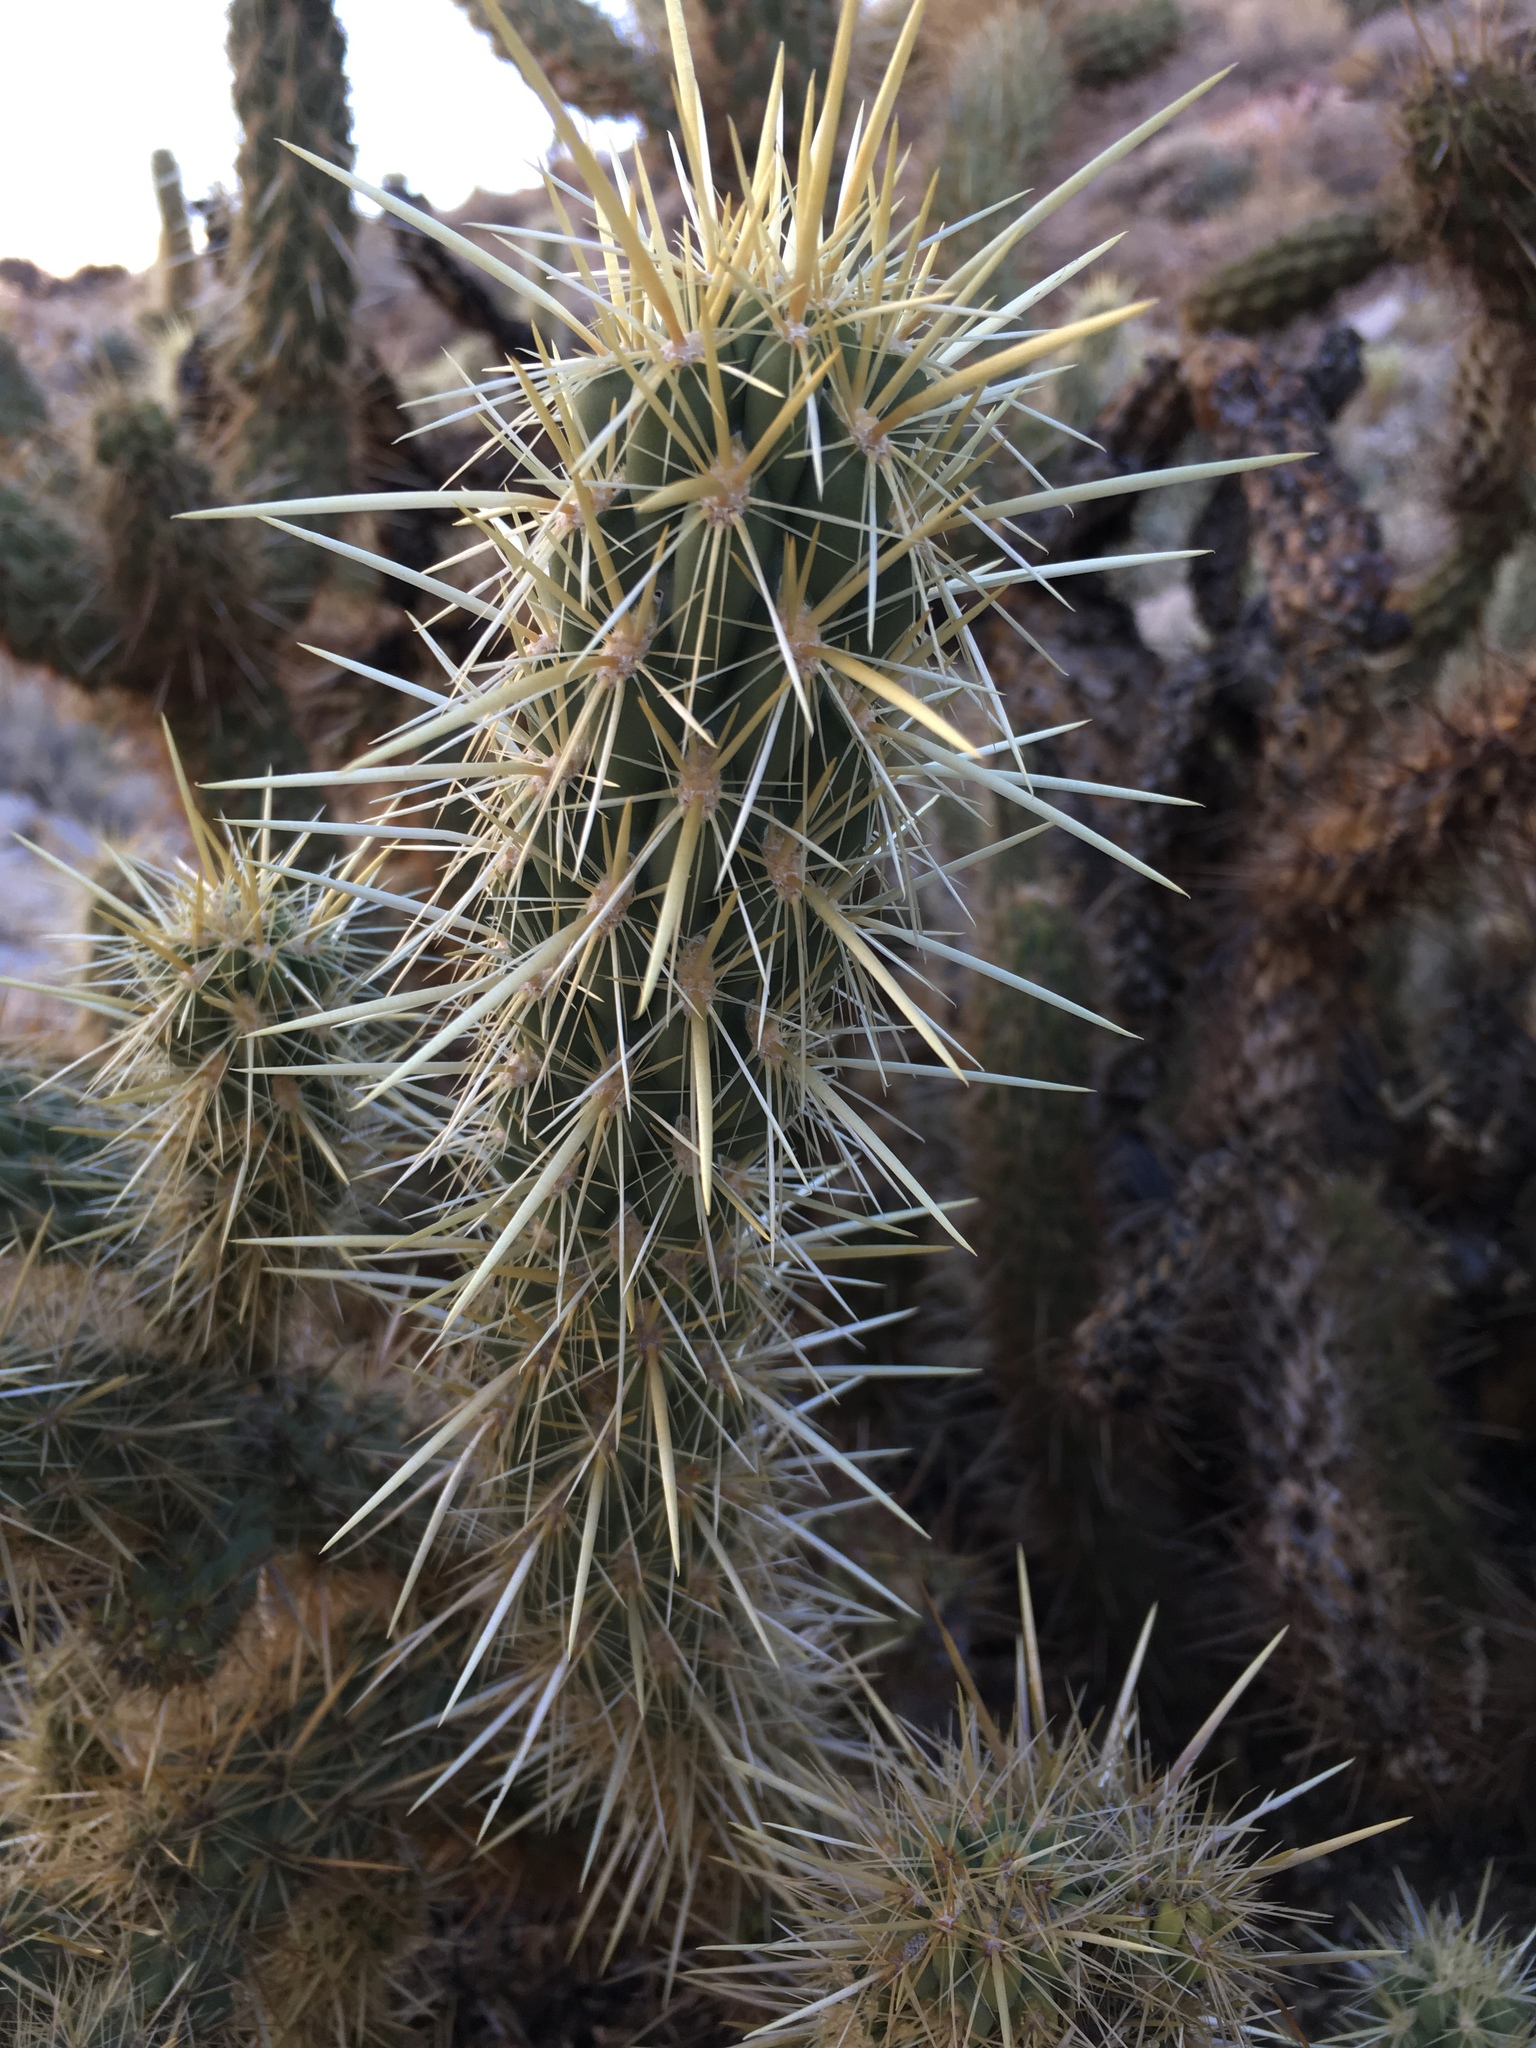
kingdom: Plantae
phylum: Tracheophyta
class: Magnoliopsida
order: Caryophyllales
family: Cactaceae
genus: Cylindropuntia
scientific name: Cylindropuntia ganderi
